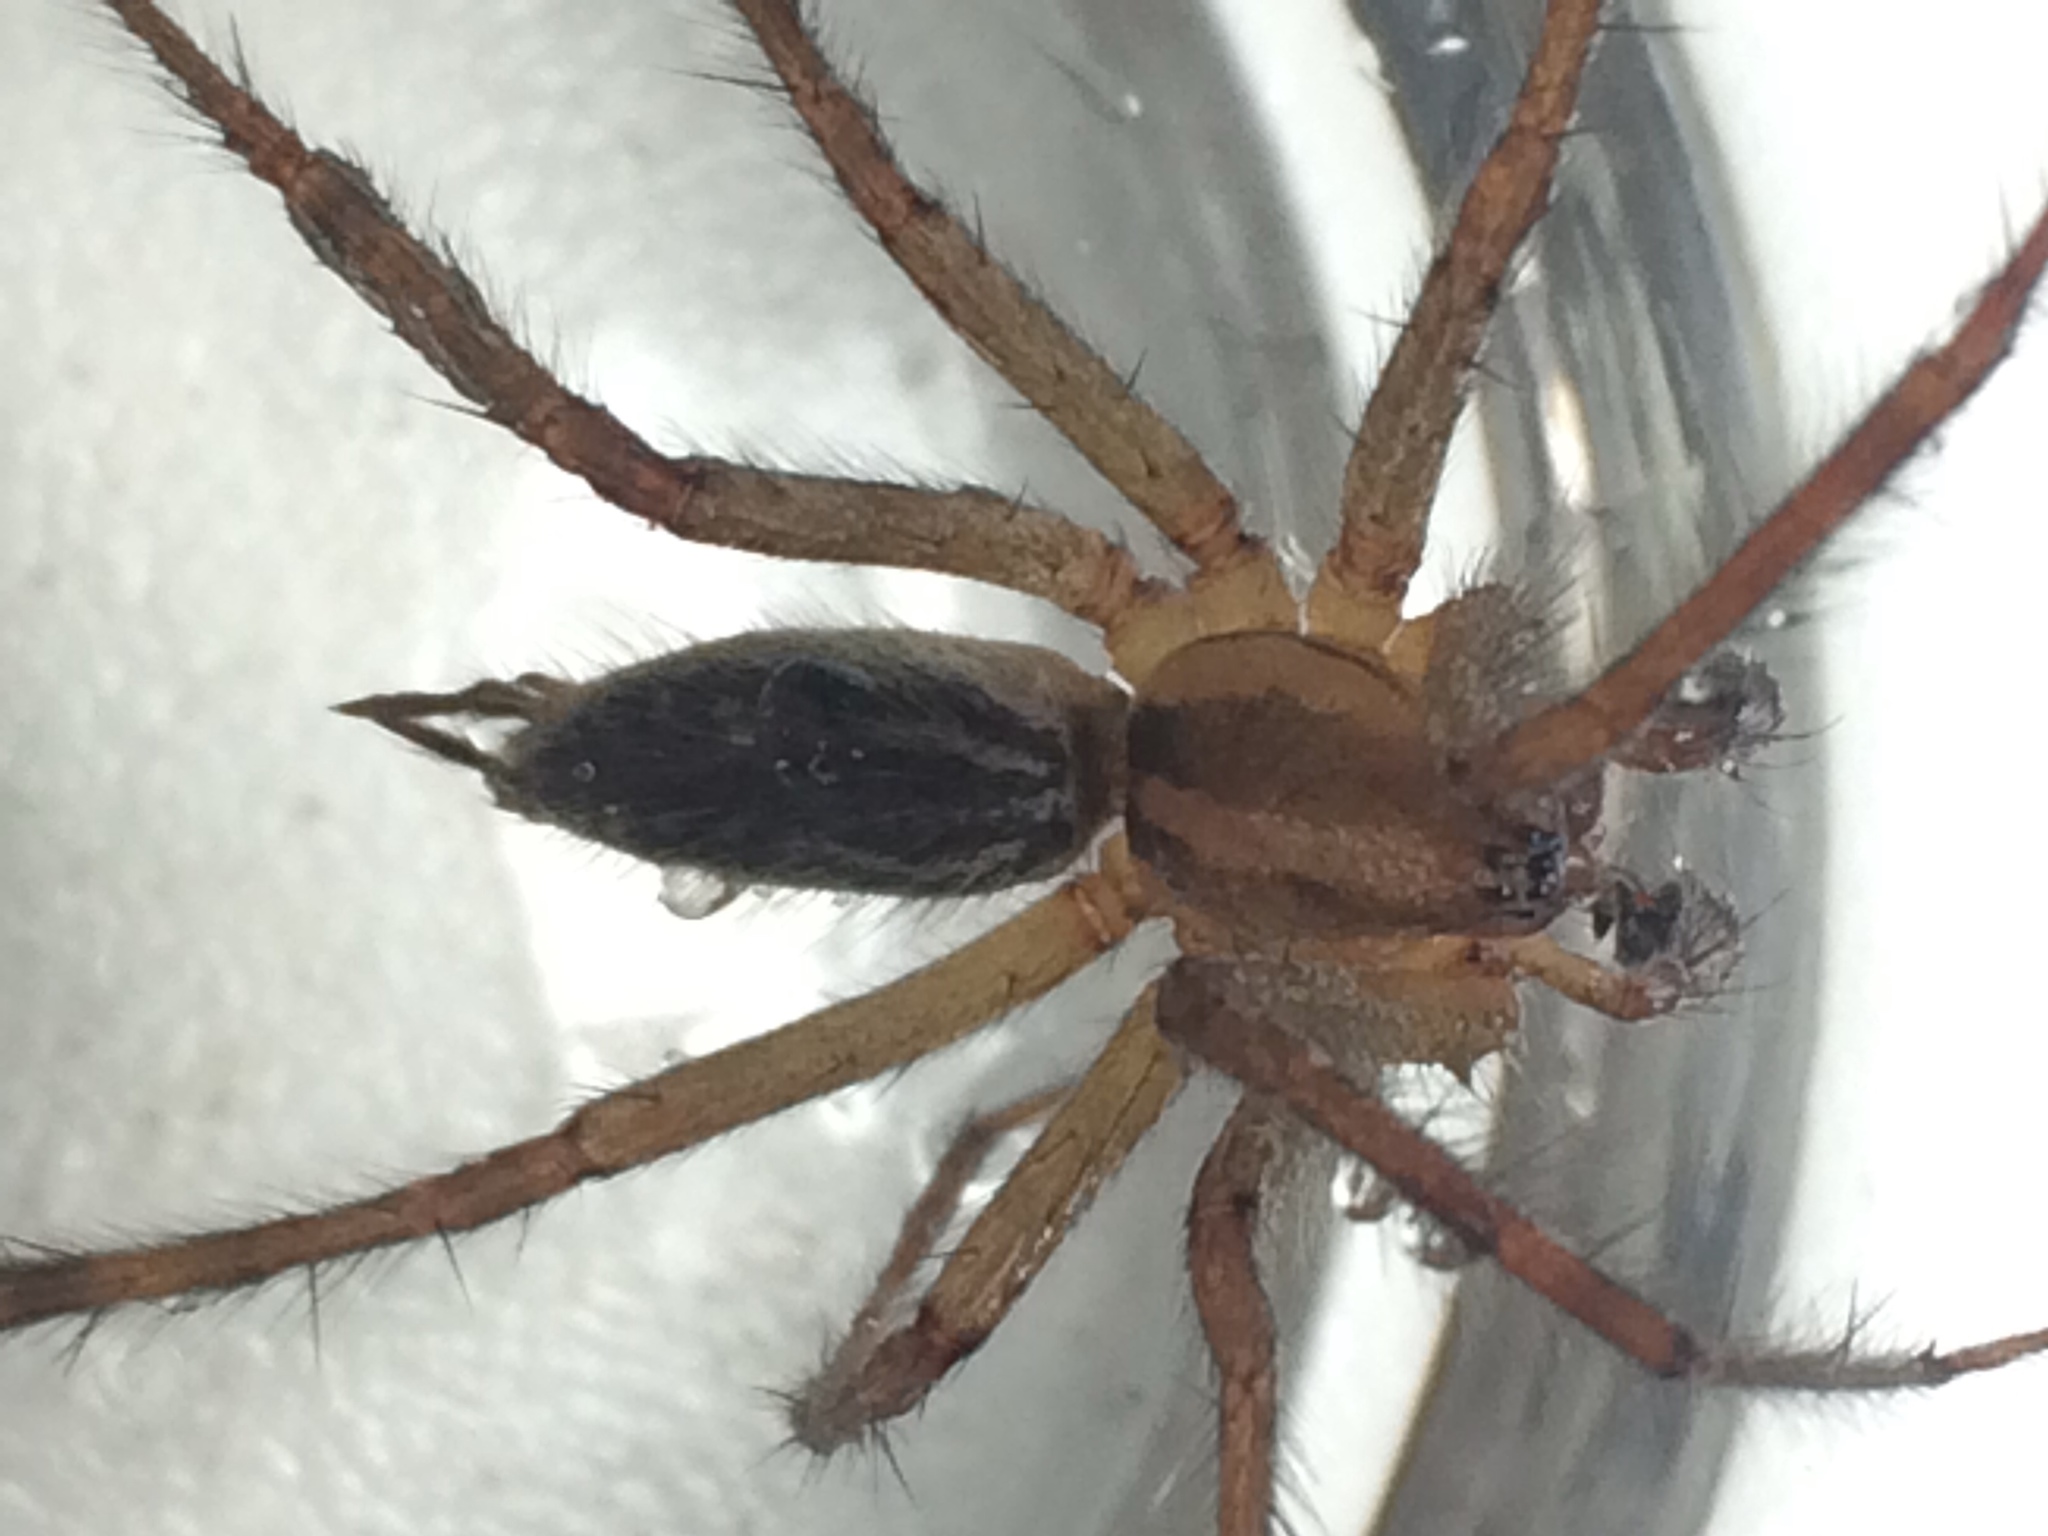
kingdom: Animalia
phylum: Arthropoda
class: Arachnida
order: Araneae
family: Agelenidae
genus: Agelenopsis
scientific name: Agelenopsis
